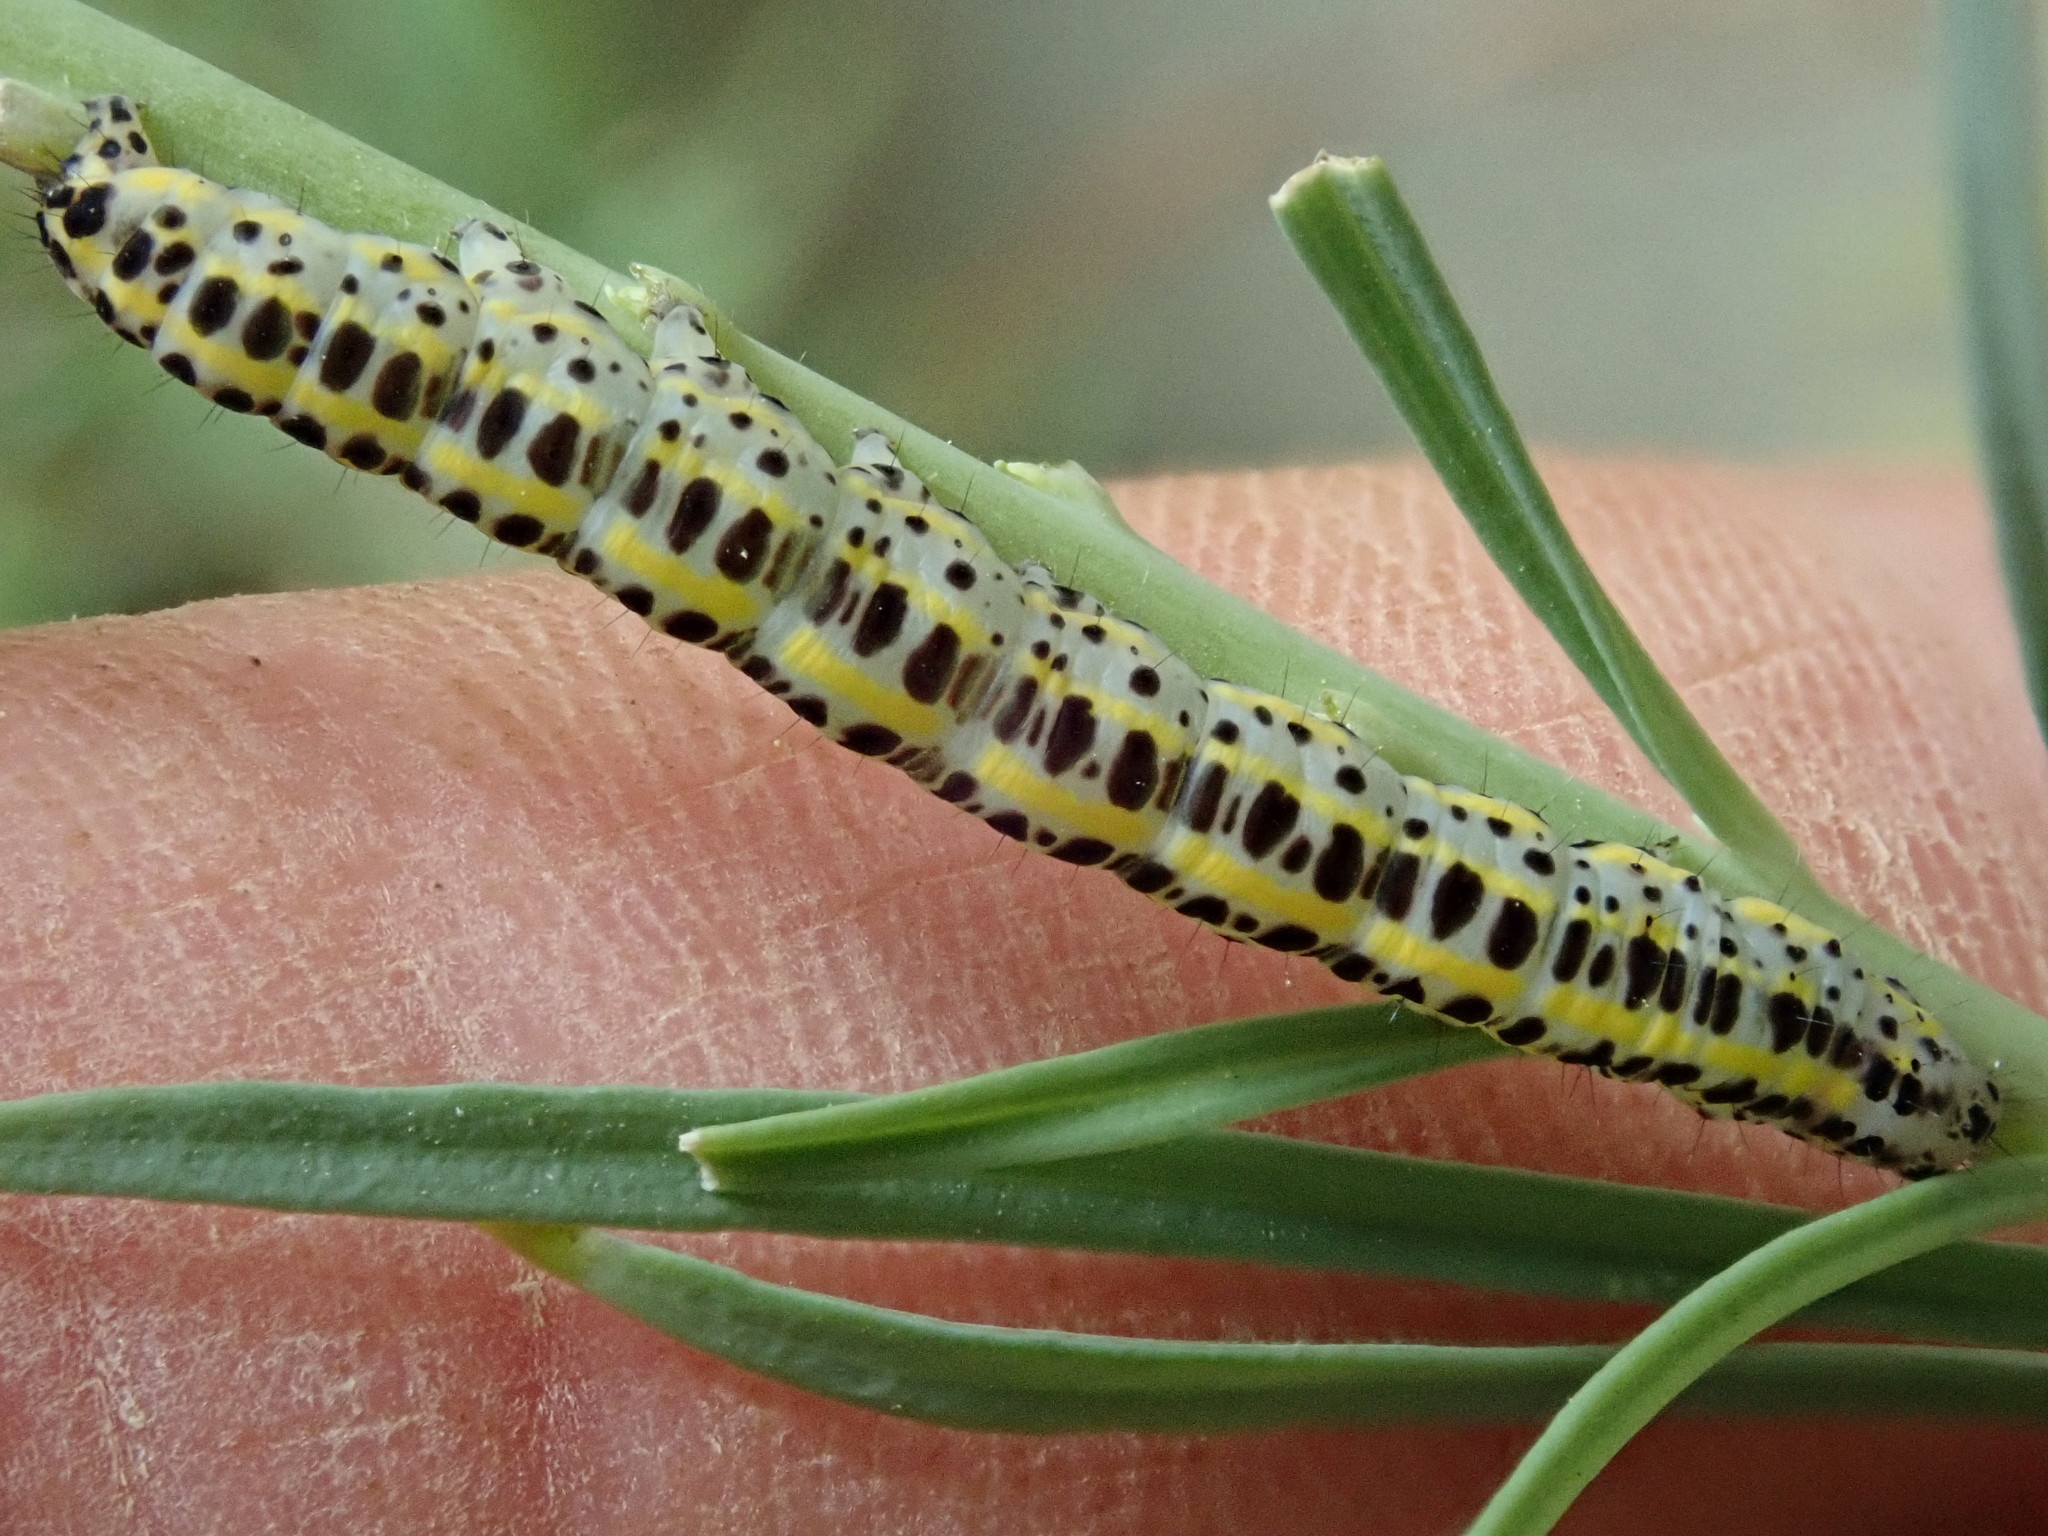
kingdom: Animalia
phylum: Arthropoda
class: Insecta
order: Lepidoptera
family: Noctuidae
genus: Calophasia
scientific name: Calophasia lunula
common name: Toadflax brocade
